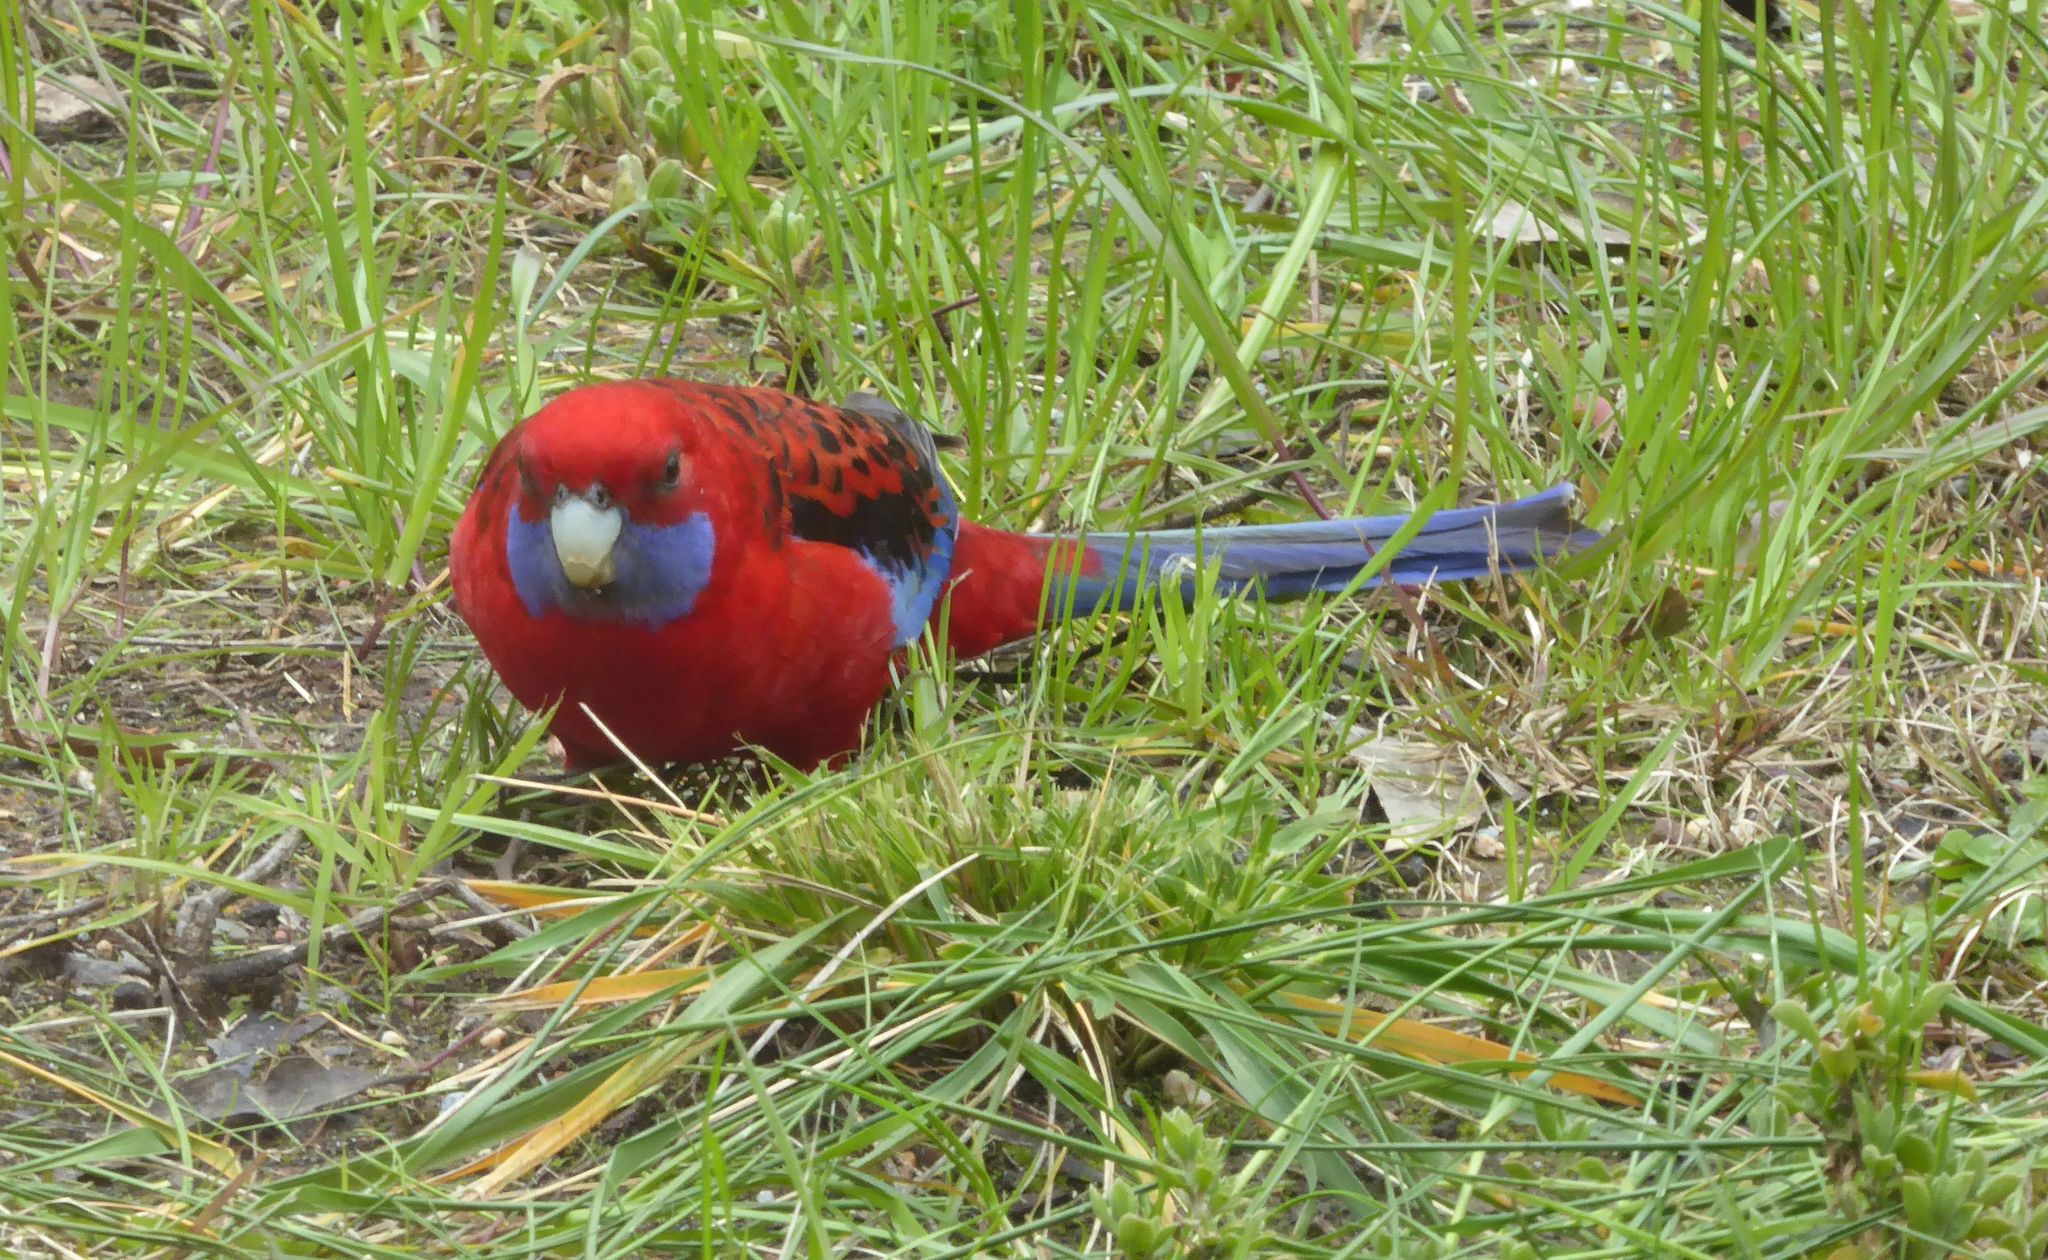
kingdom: Animalia
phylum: Chordata
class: Aves
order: Psittaciformes
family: Psittacidae
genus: Platycercus
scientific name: Platycercus elegans
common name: Crimson rosella
